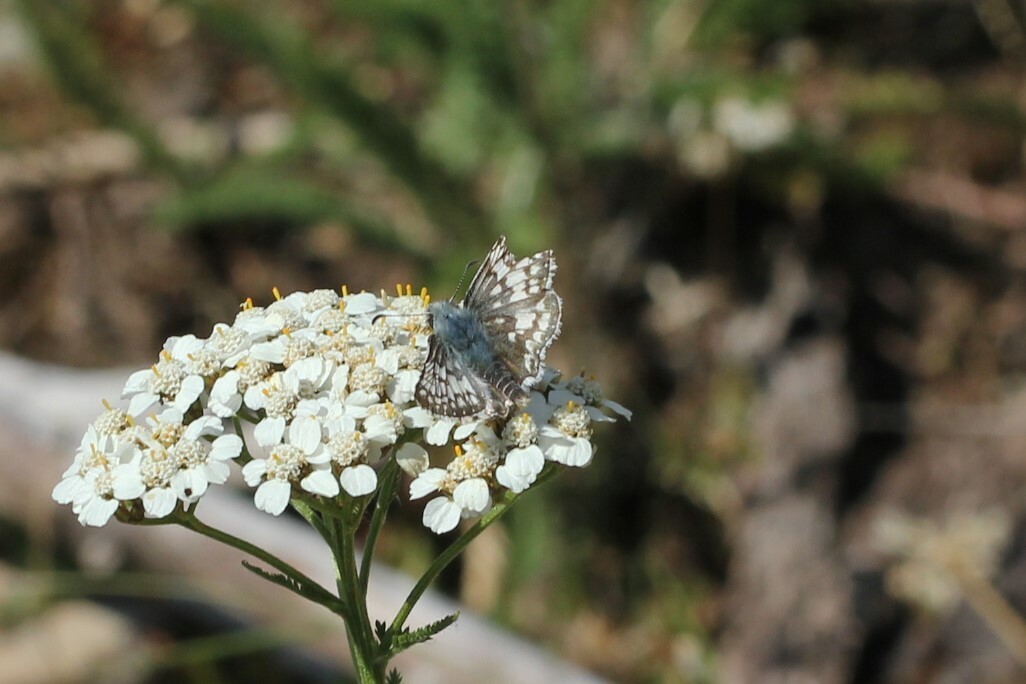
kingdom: Animalia
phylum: Arthropoda
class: Insecta
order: Lepidoptera
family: Hesperiidae
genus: Burnsius
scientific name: Burnsius communis
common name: Common checkered-skipper
